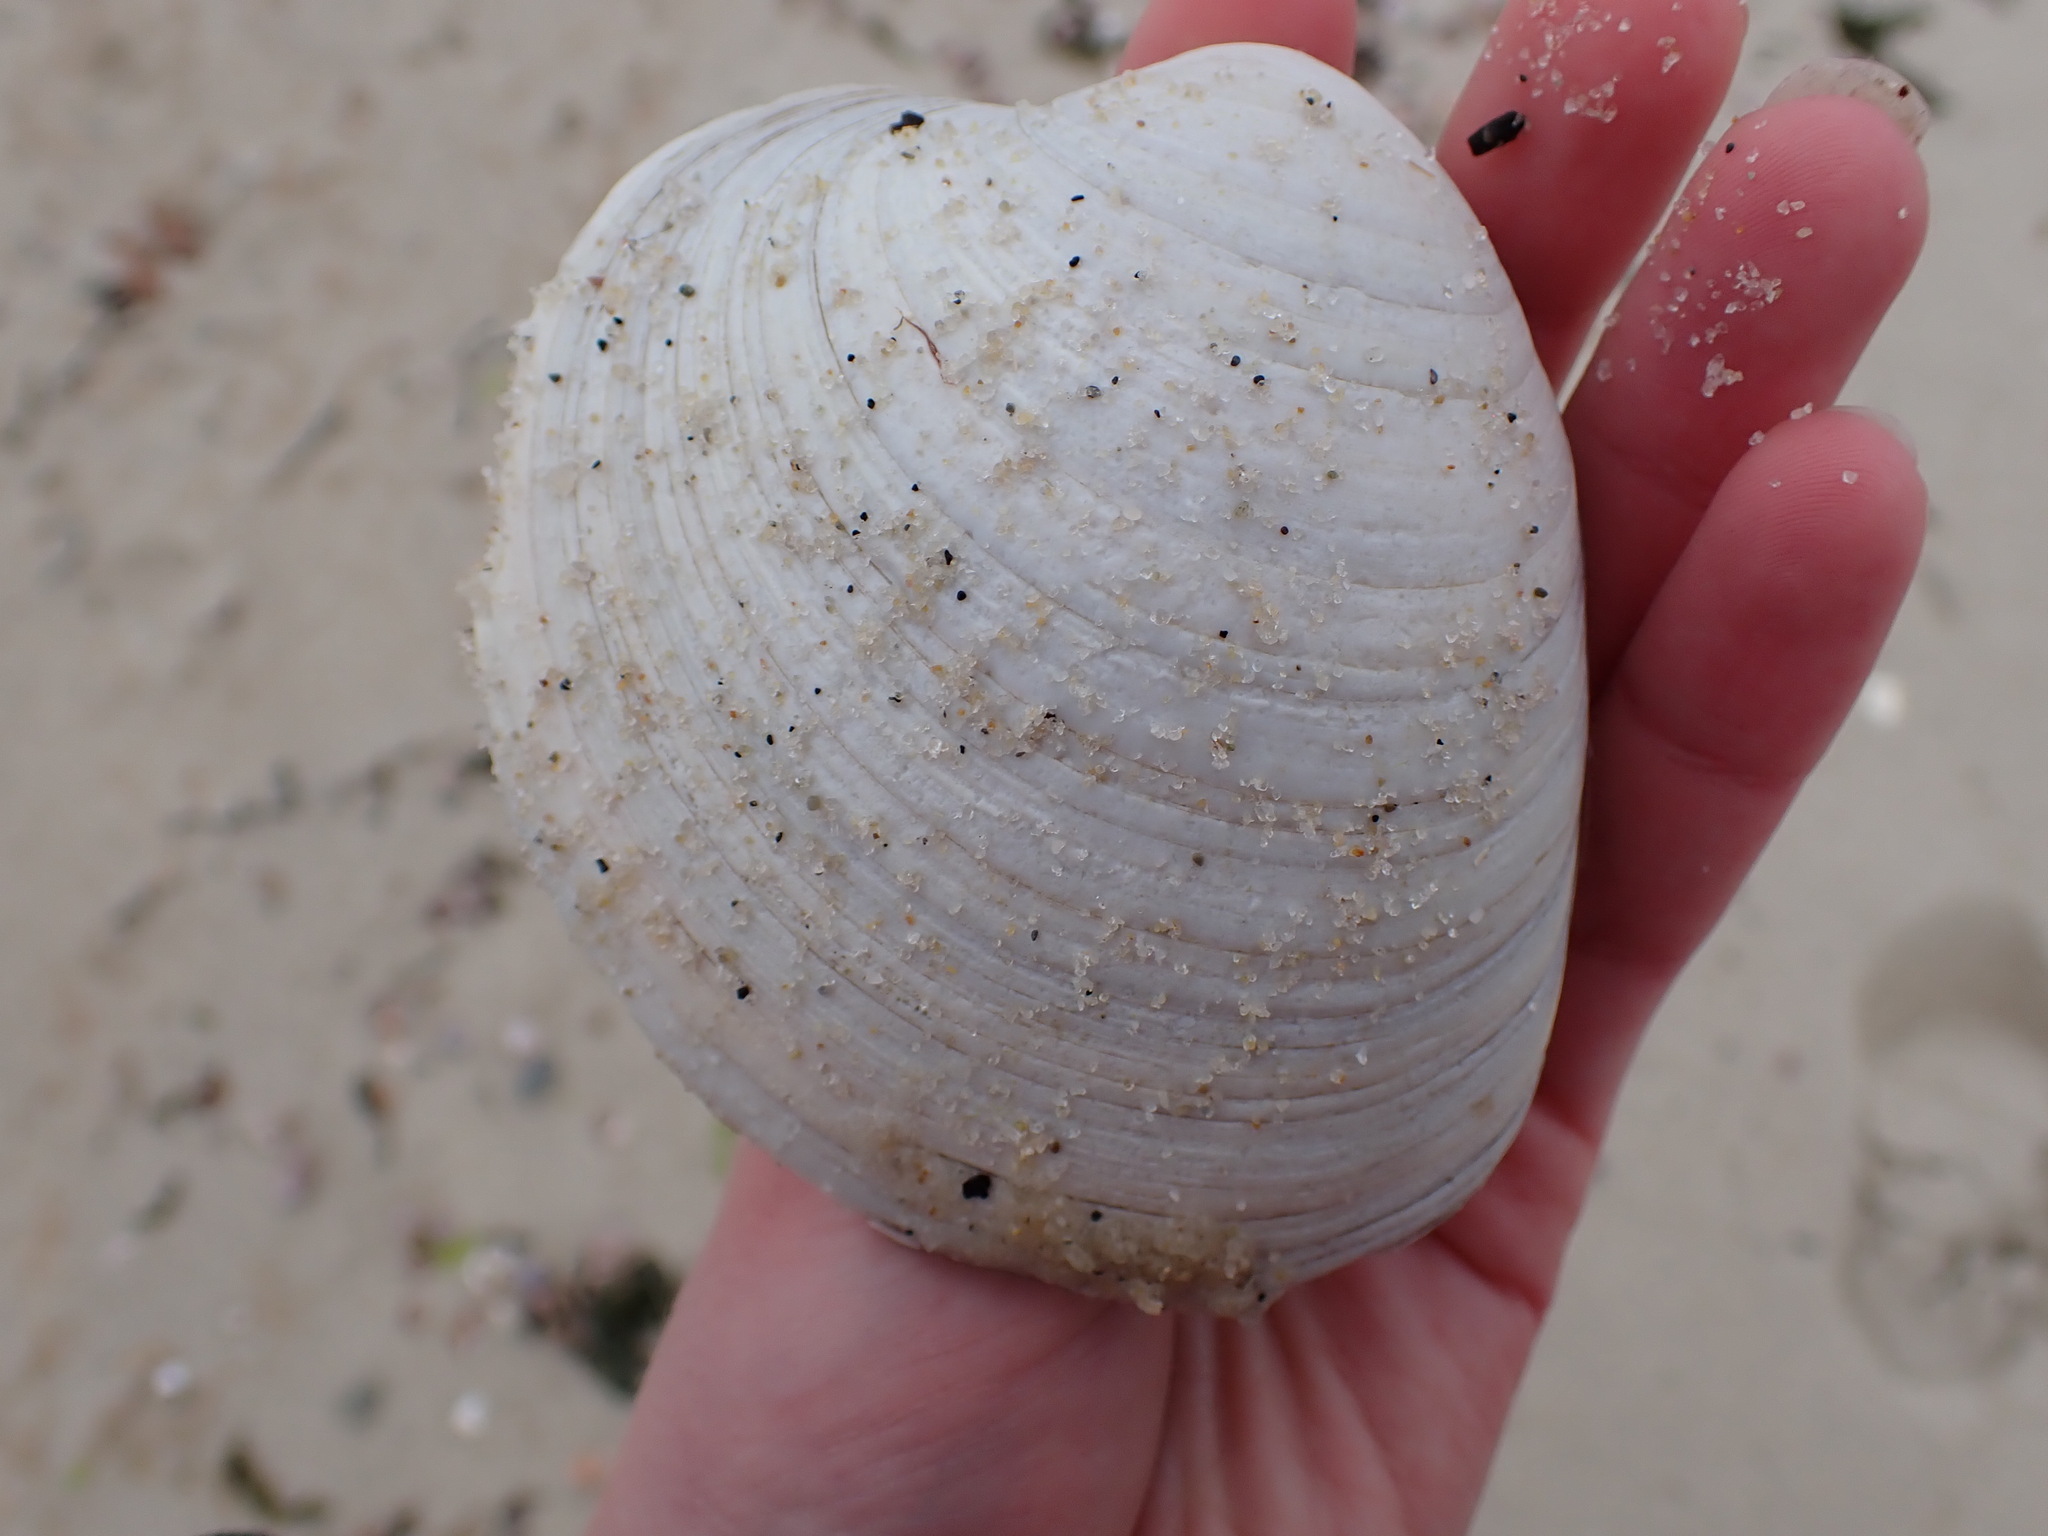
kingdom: Animalia
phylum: Mollusca
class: Bivalvia
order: Venerida
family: Veneridae
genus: Mercenaria
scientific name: Mercenaria mercenaria
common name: American hard-shelled clam
